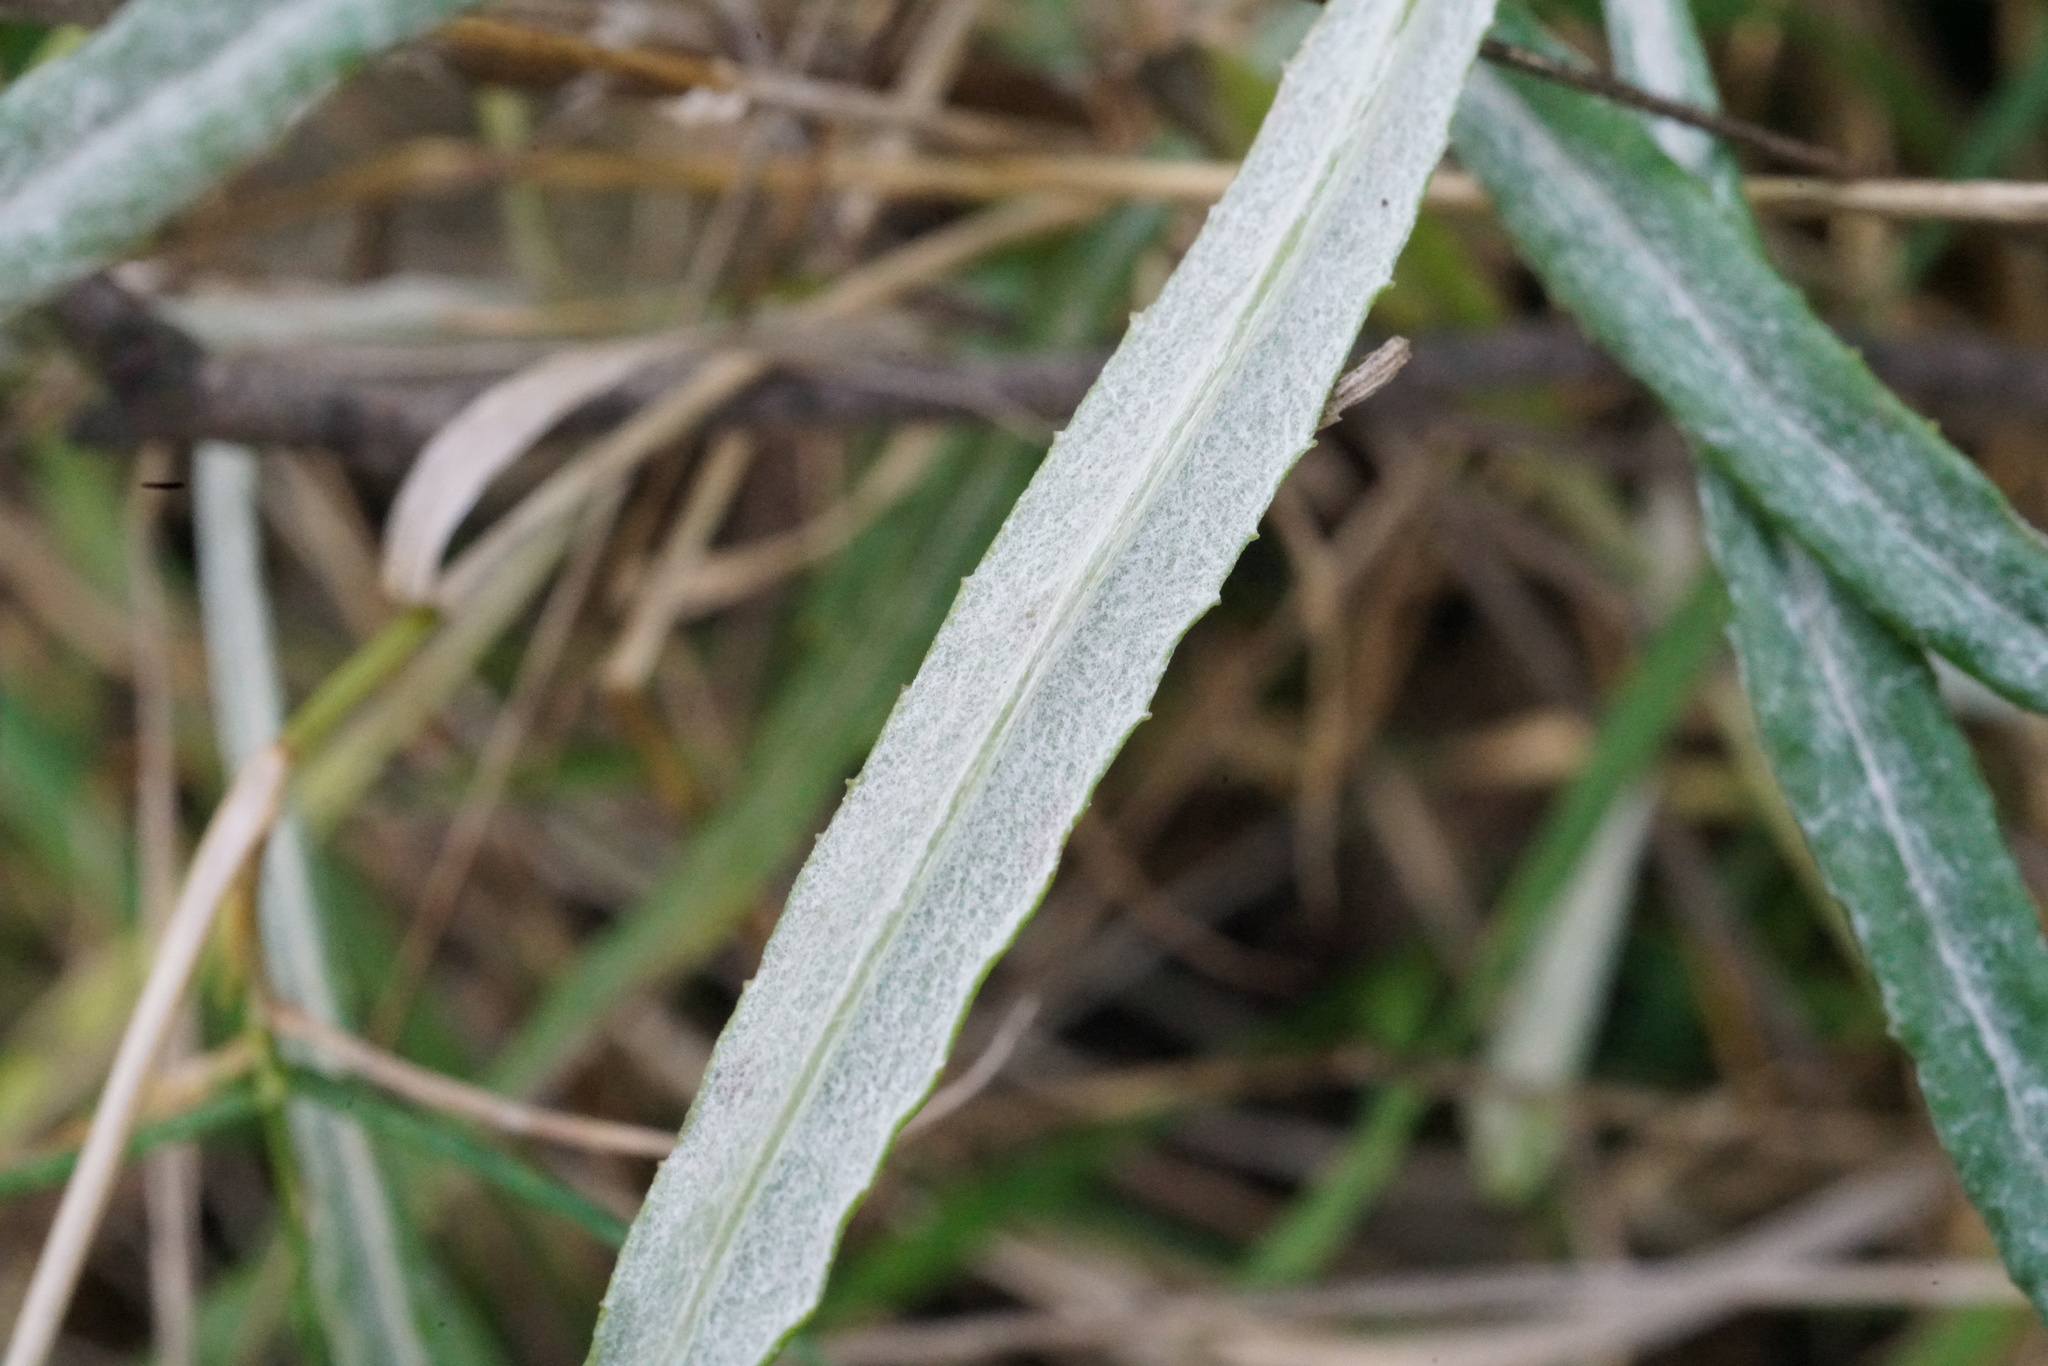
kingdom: Plantae
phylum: Tracheophyta
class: Magnoliopsida
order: Asterales
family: Asteraceae
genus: Senecio
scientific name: Senecio quadridentatus
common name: Cotton fireweed
